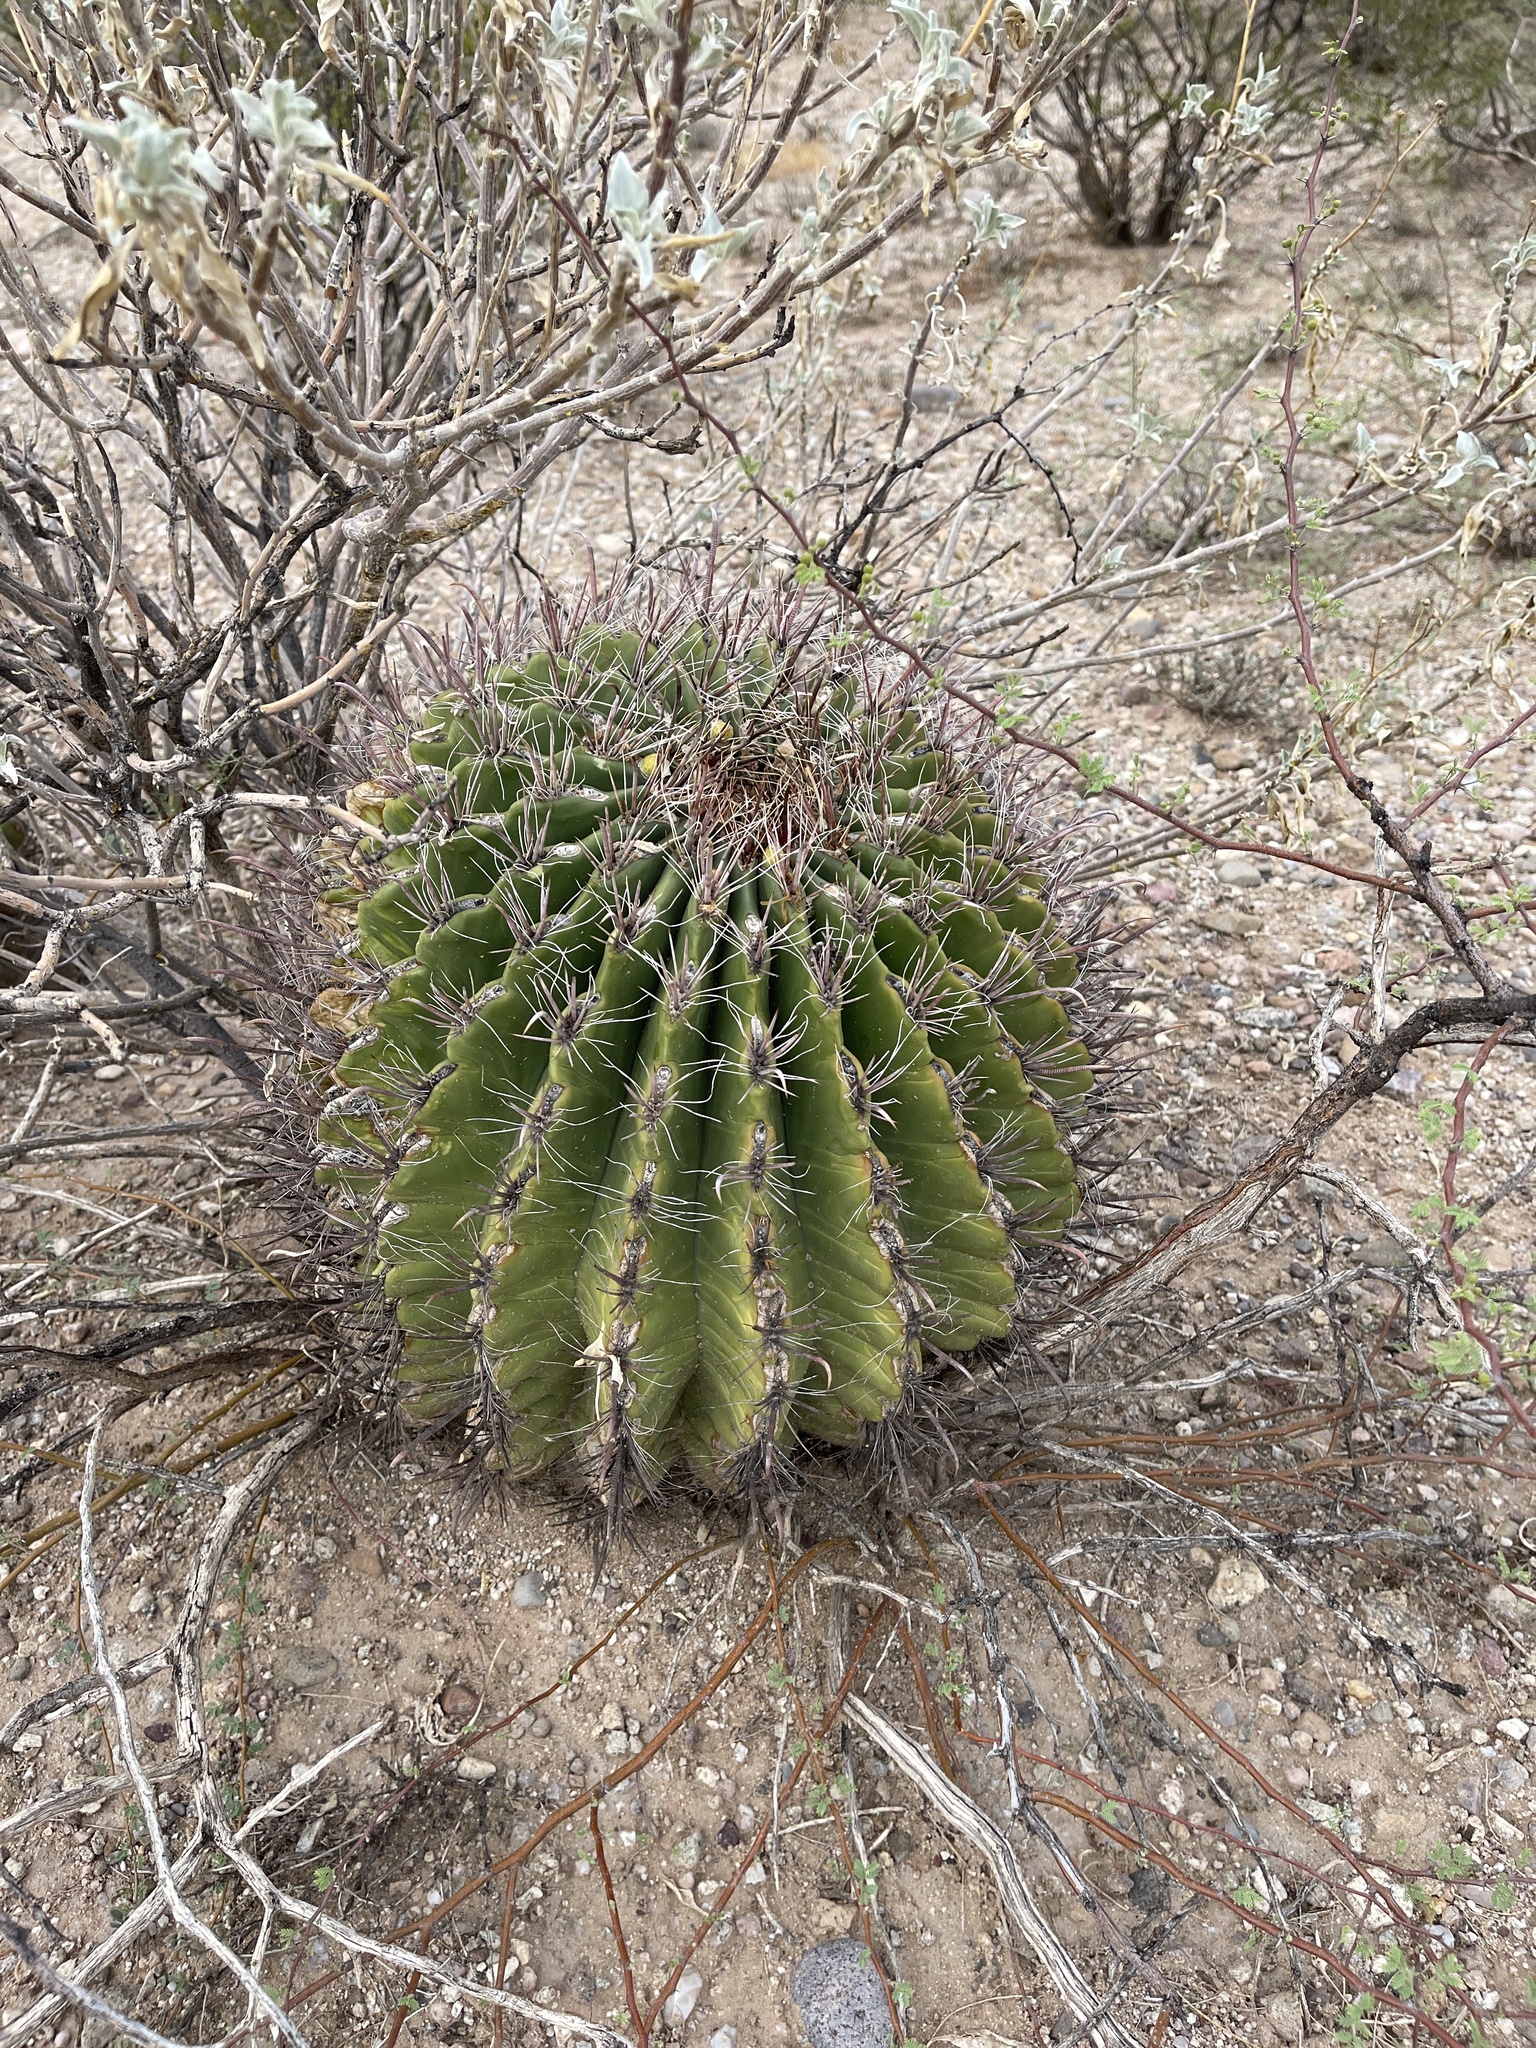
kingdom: Plantae
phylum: Tracheophyta
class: Magnoliopsida
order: Caryophyllales
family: Cactaceae
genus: Ferocactus
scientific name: Ferocactus wislizeni
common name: Candy barrel cactus
